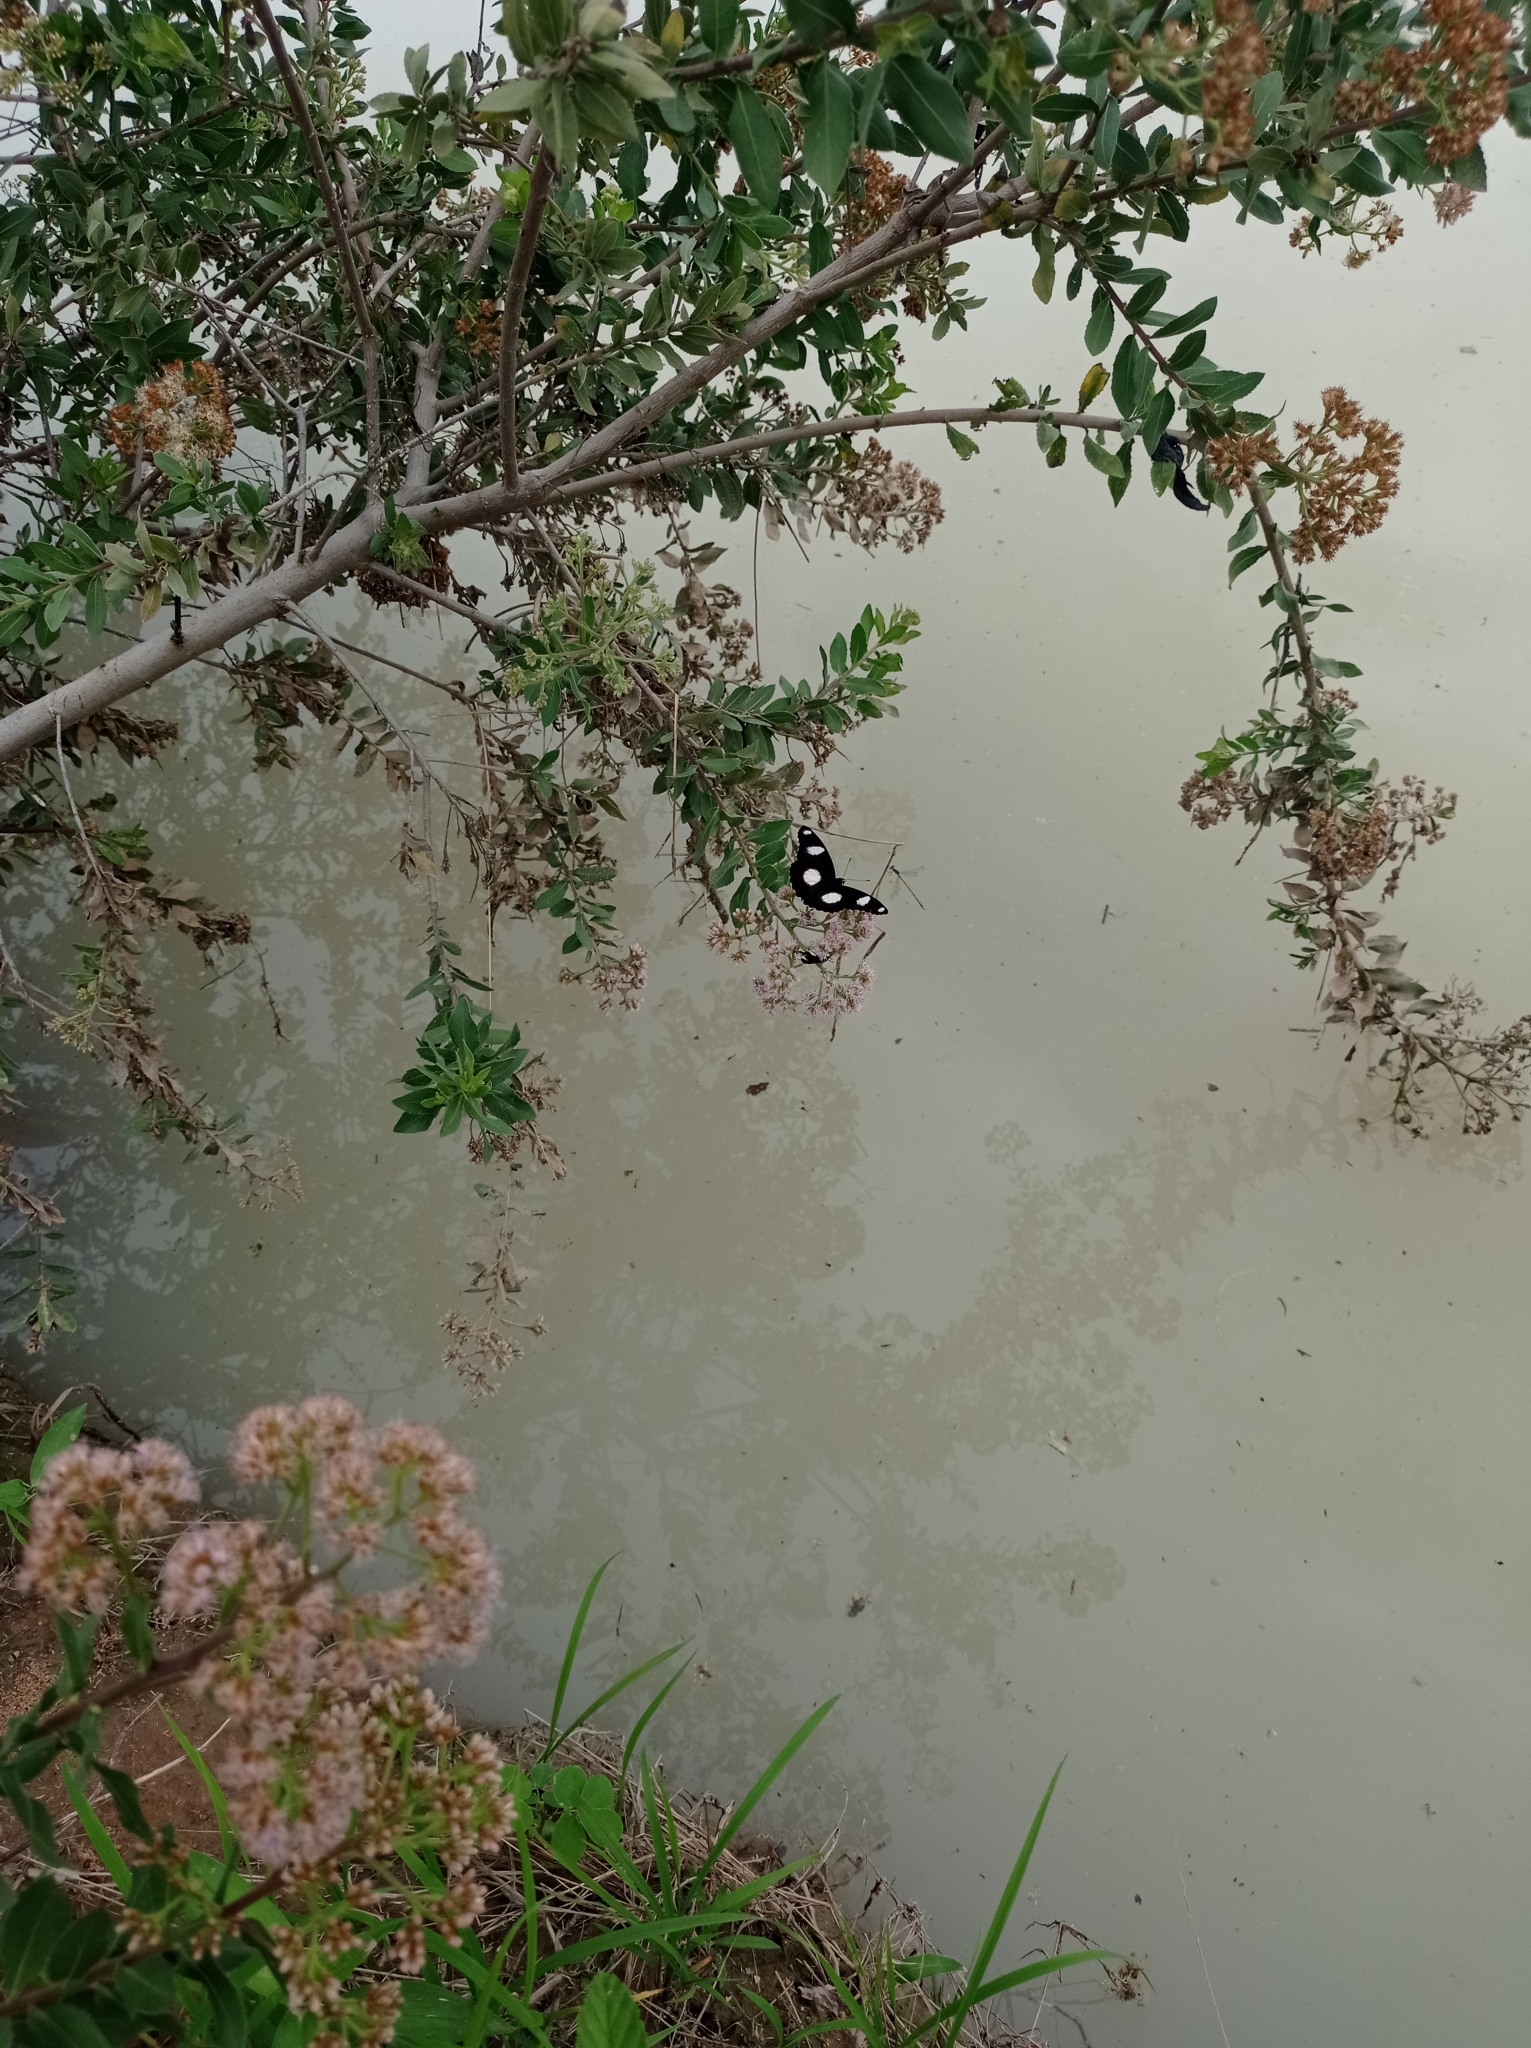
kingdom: Animalia
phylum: Arthropoda
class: Insecta
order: Lepidoptera
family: Nymphalidae
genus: Hypolimnas
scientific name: Hypolimnas misippus
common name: False plain tiger
